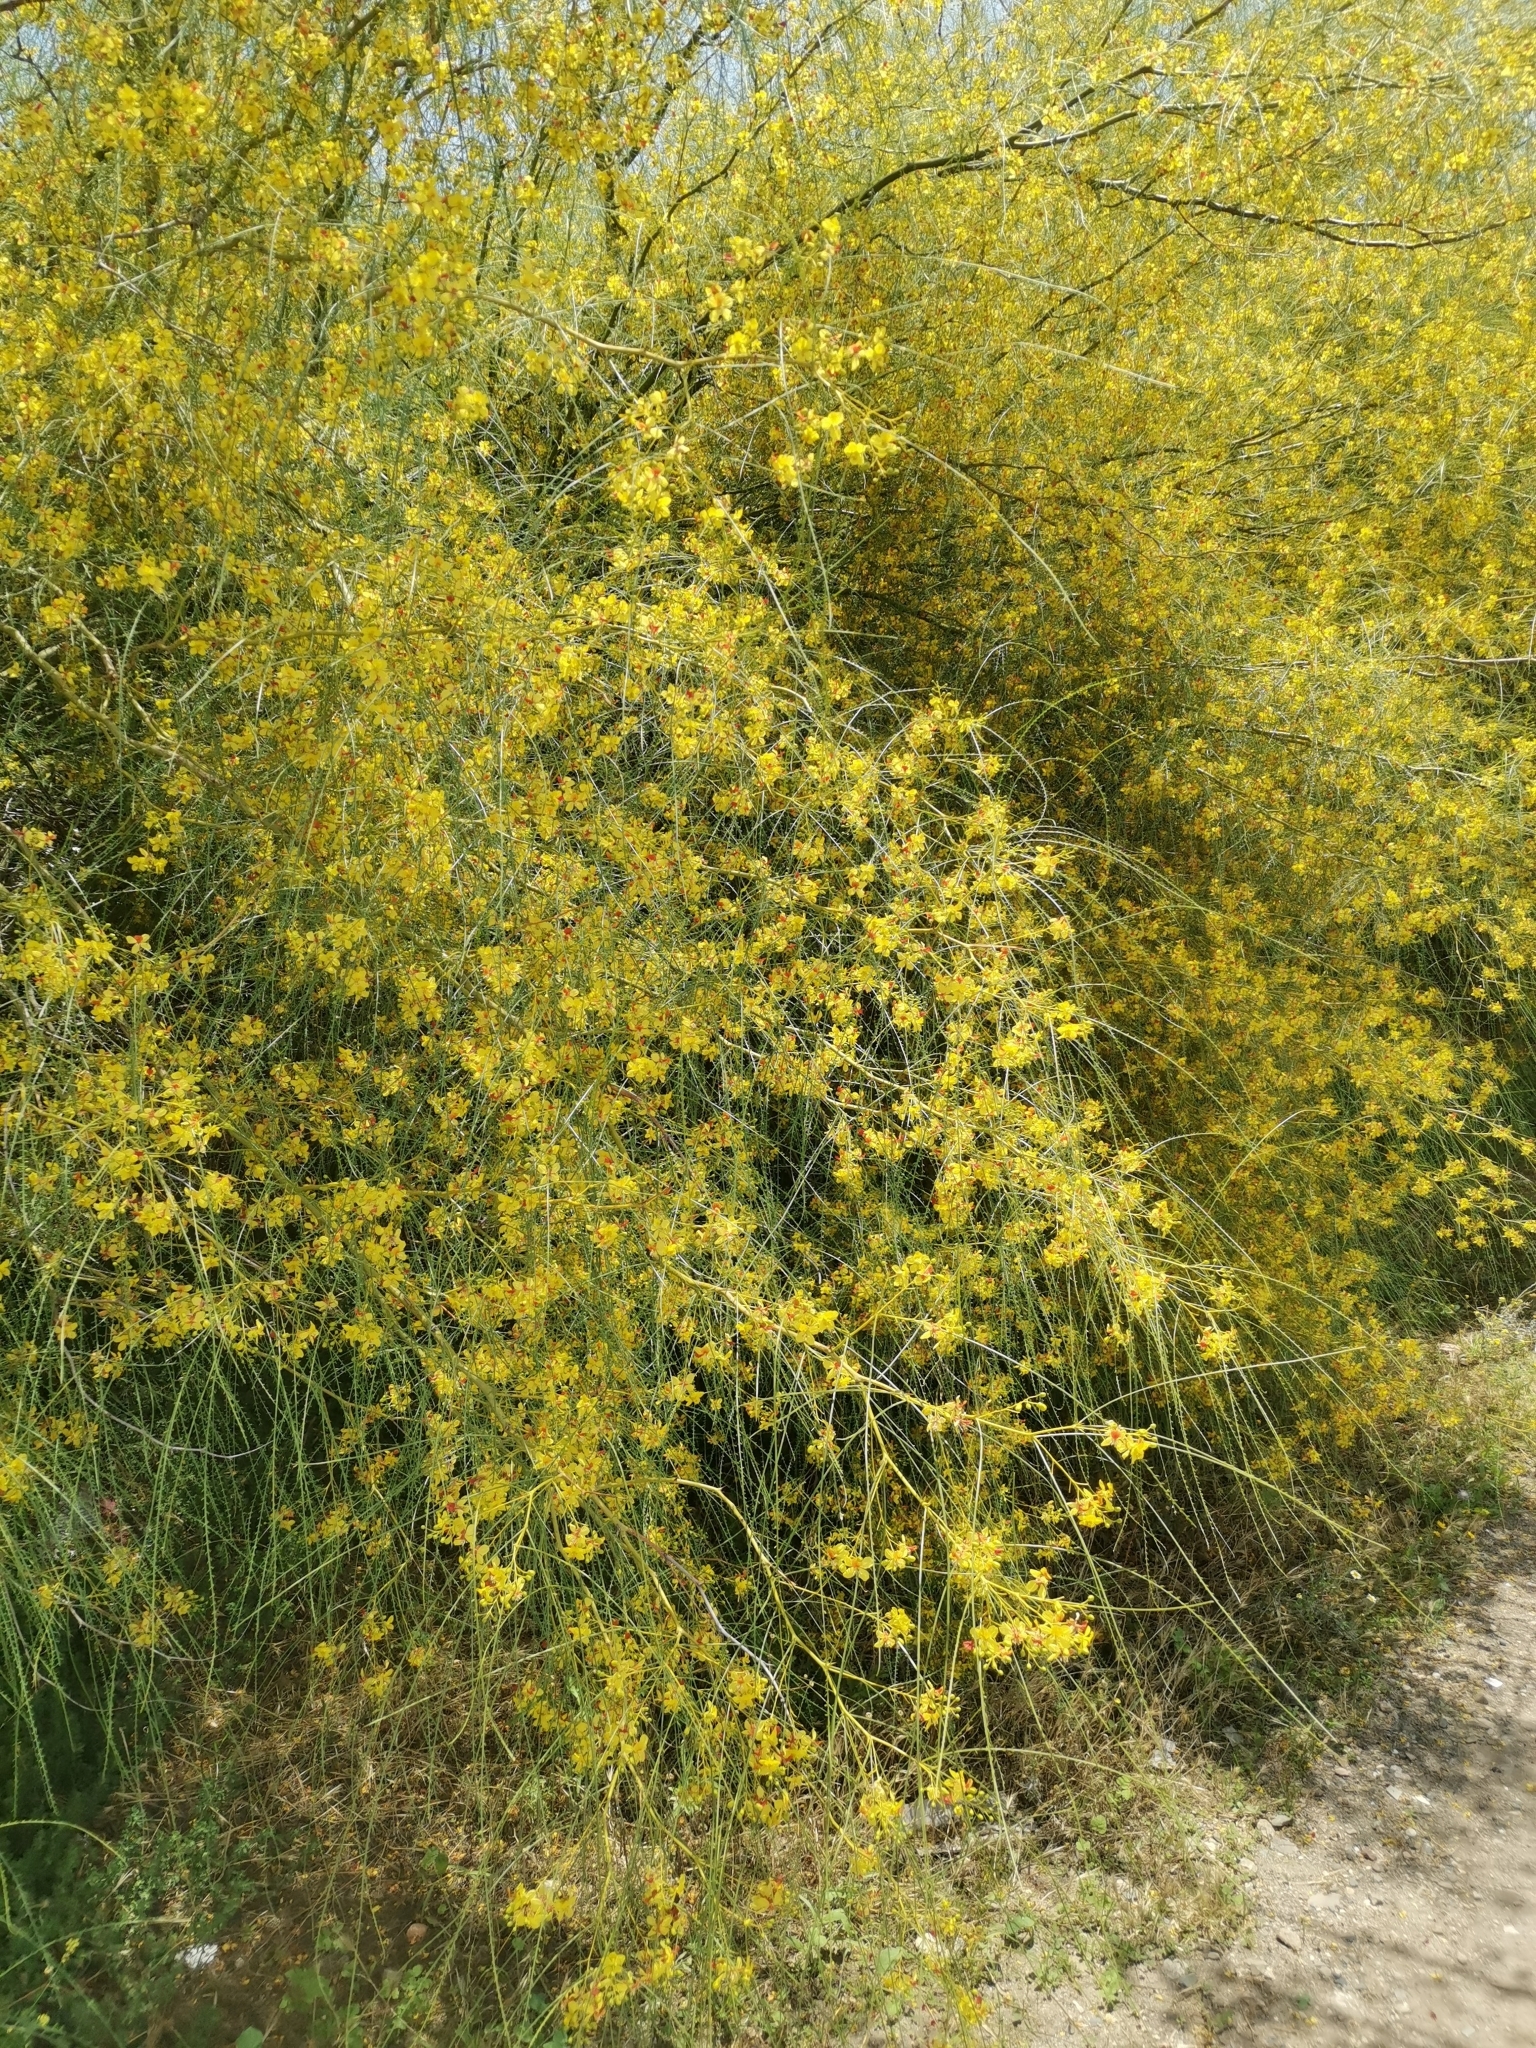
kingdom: Plantae
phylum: Tracheophyta
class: Magnoliopsida
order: Fabales
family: Fabaceae
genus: Parkinsonia
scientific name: Parkinsonia aculeata
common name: Jerusalem thorn
